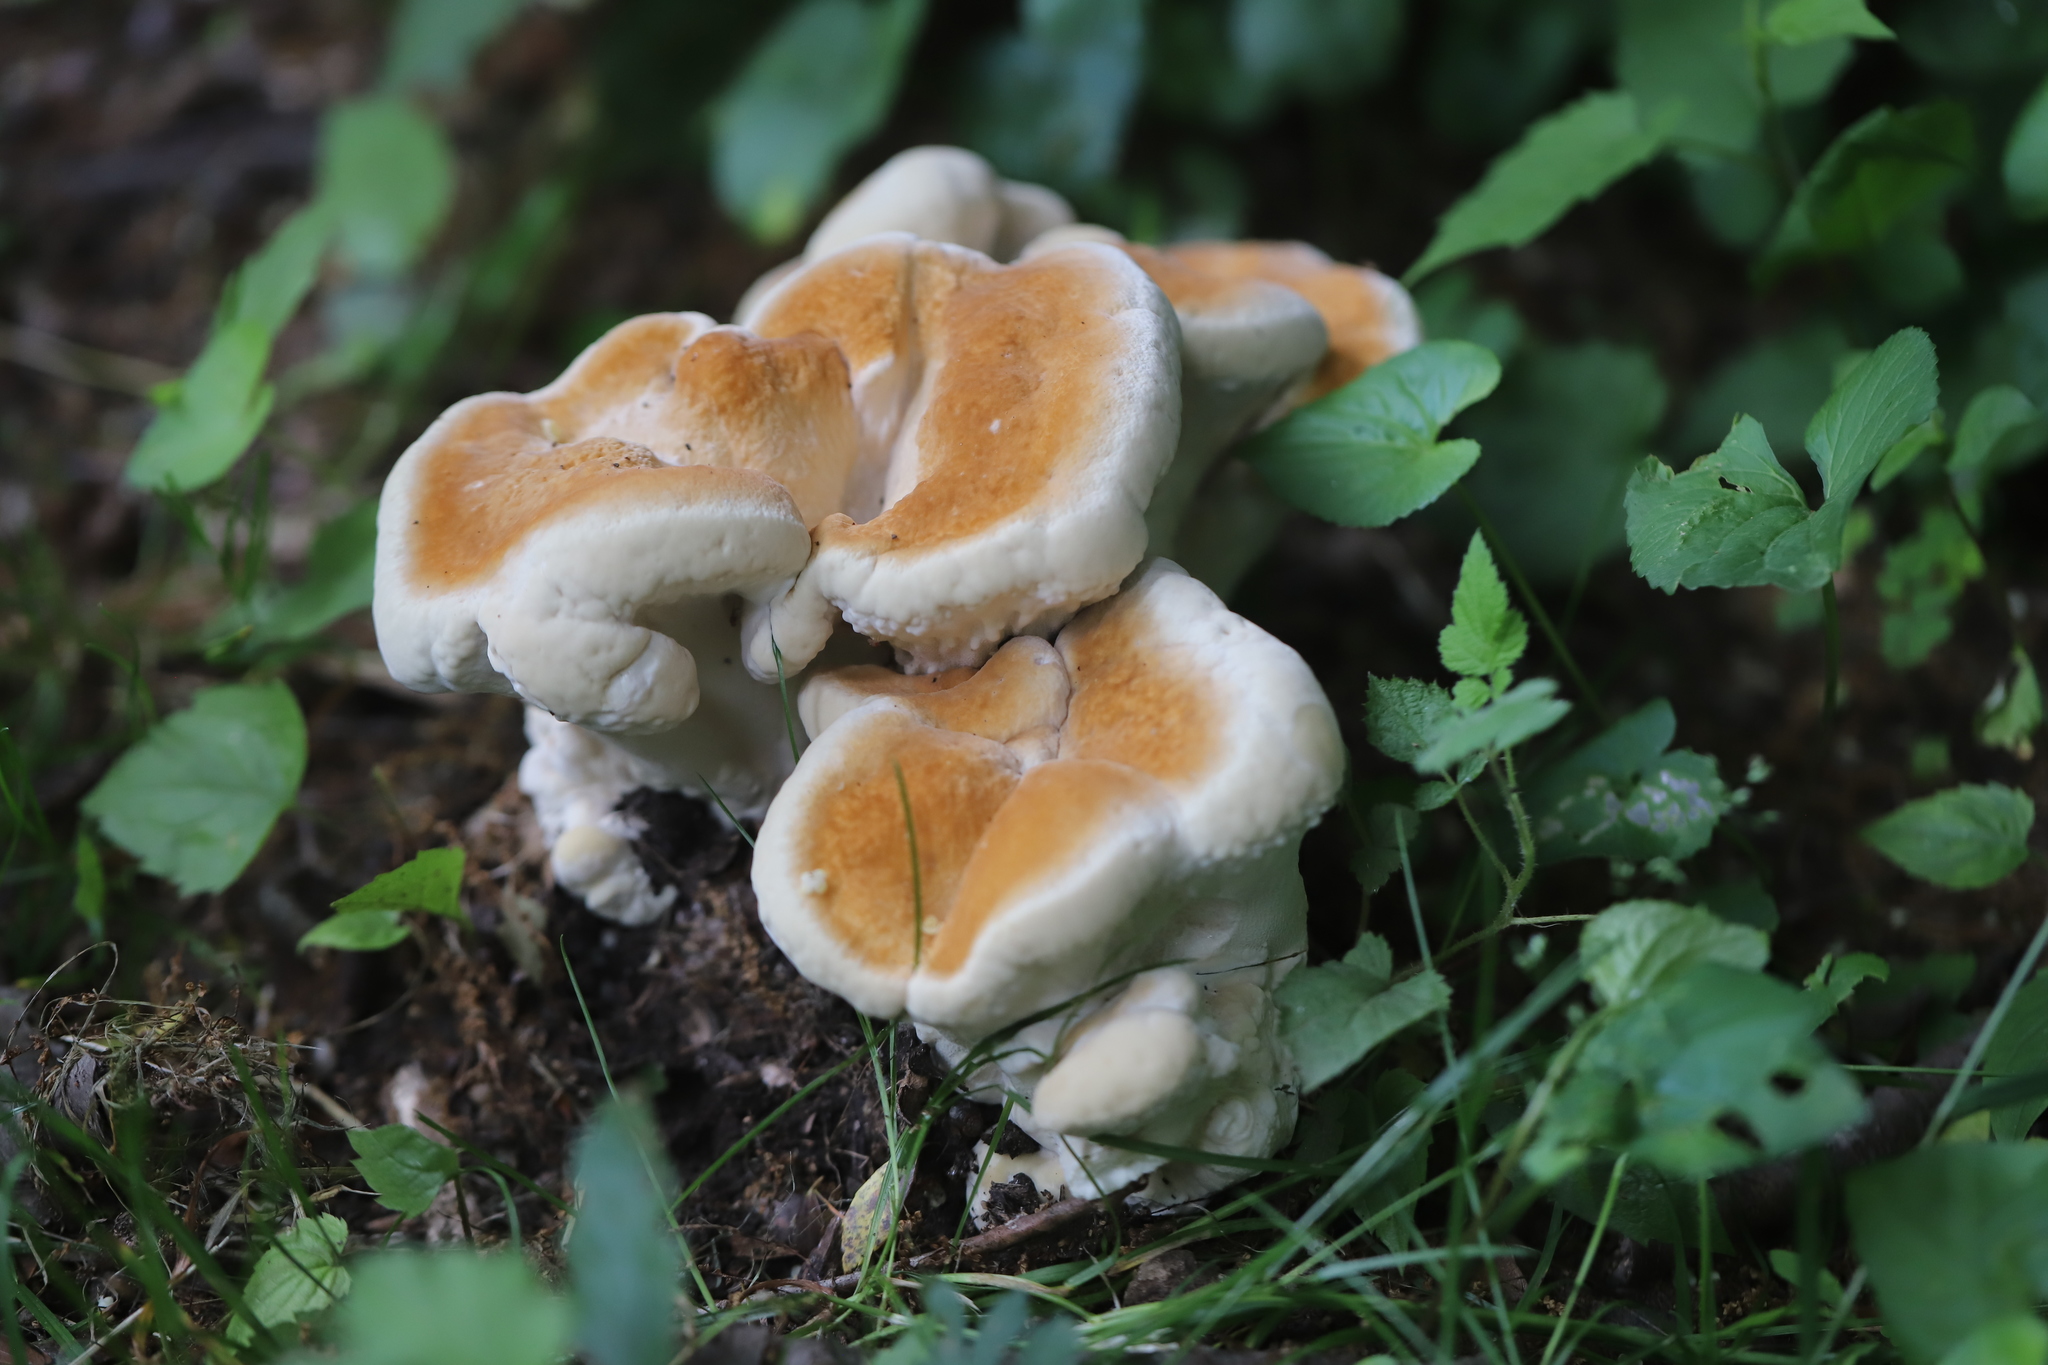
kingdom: Fungi
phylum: Basidiomycota
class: Agaricomycetes
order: Russulales
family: Bondarzewiaceae
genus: Bondarzewia
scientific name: Bondarzewia berkeleyi
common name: Berkeley's polypore
